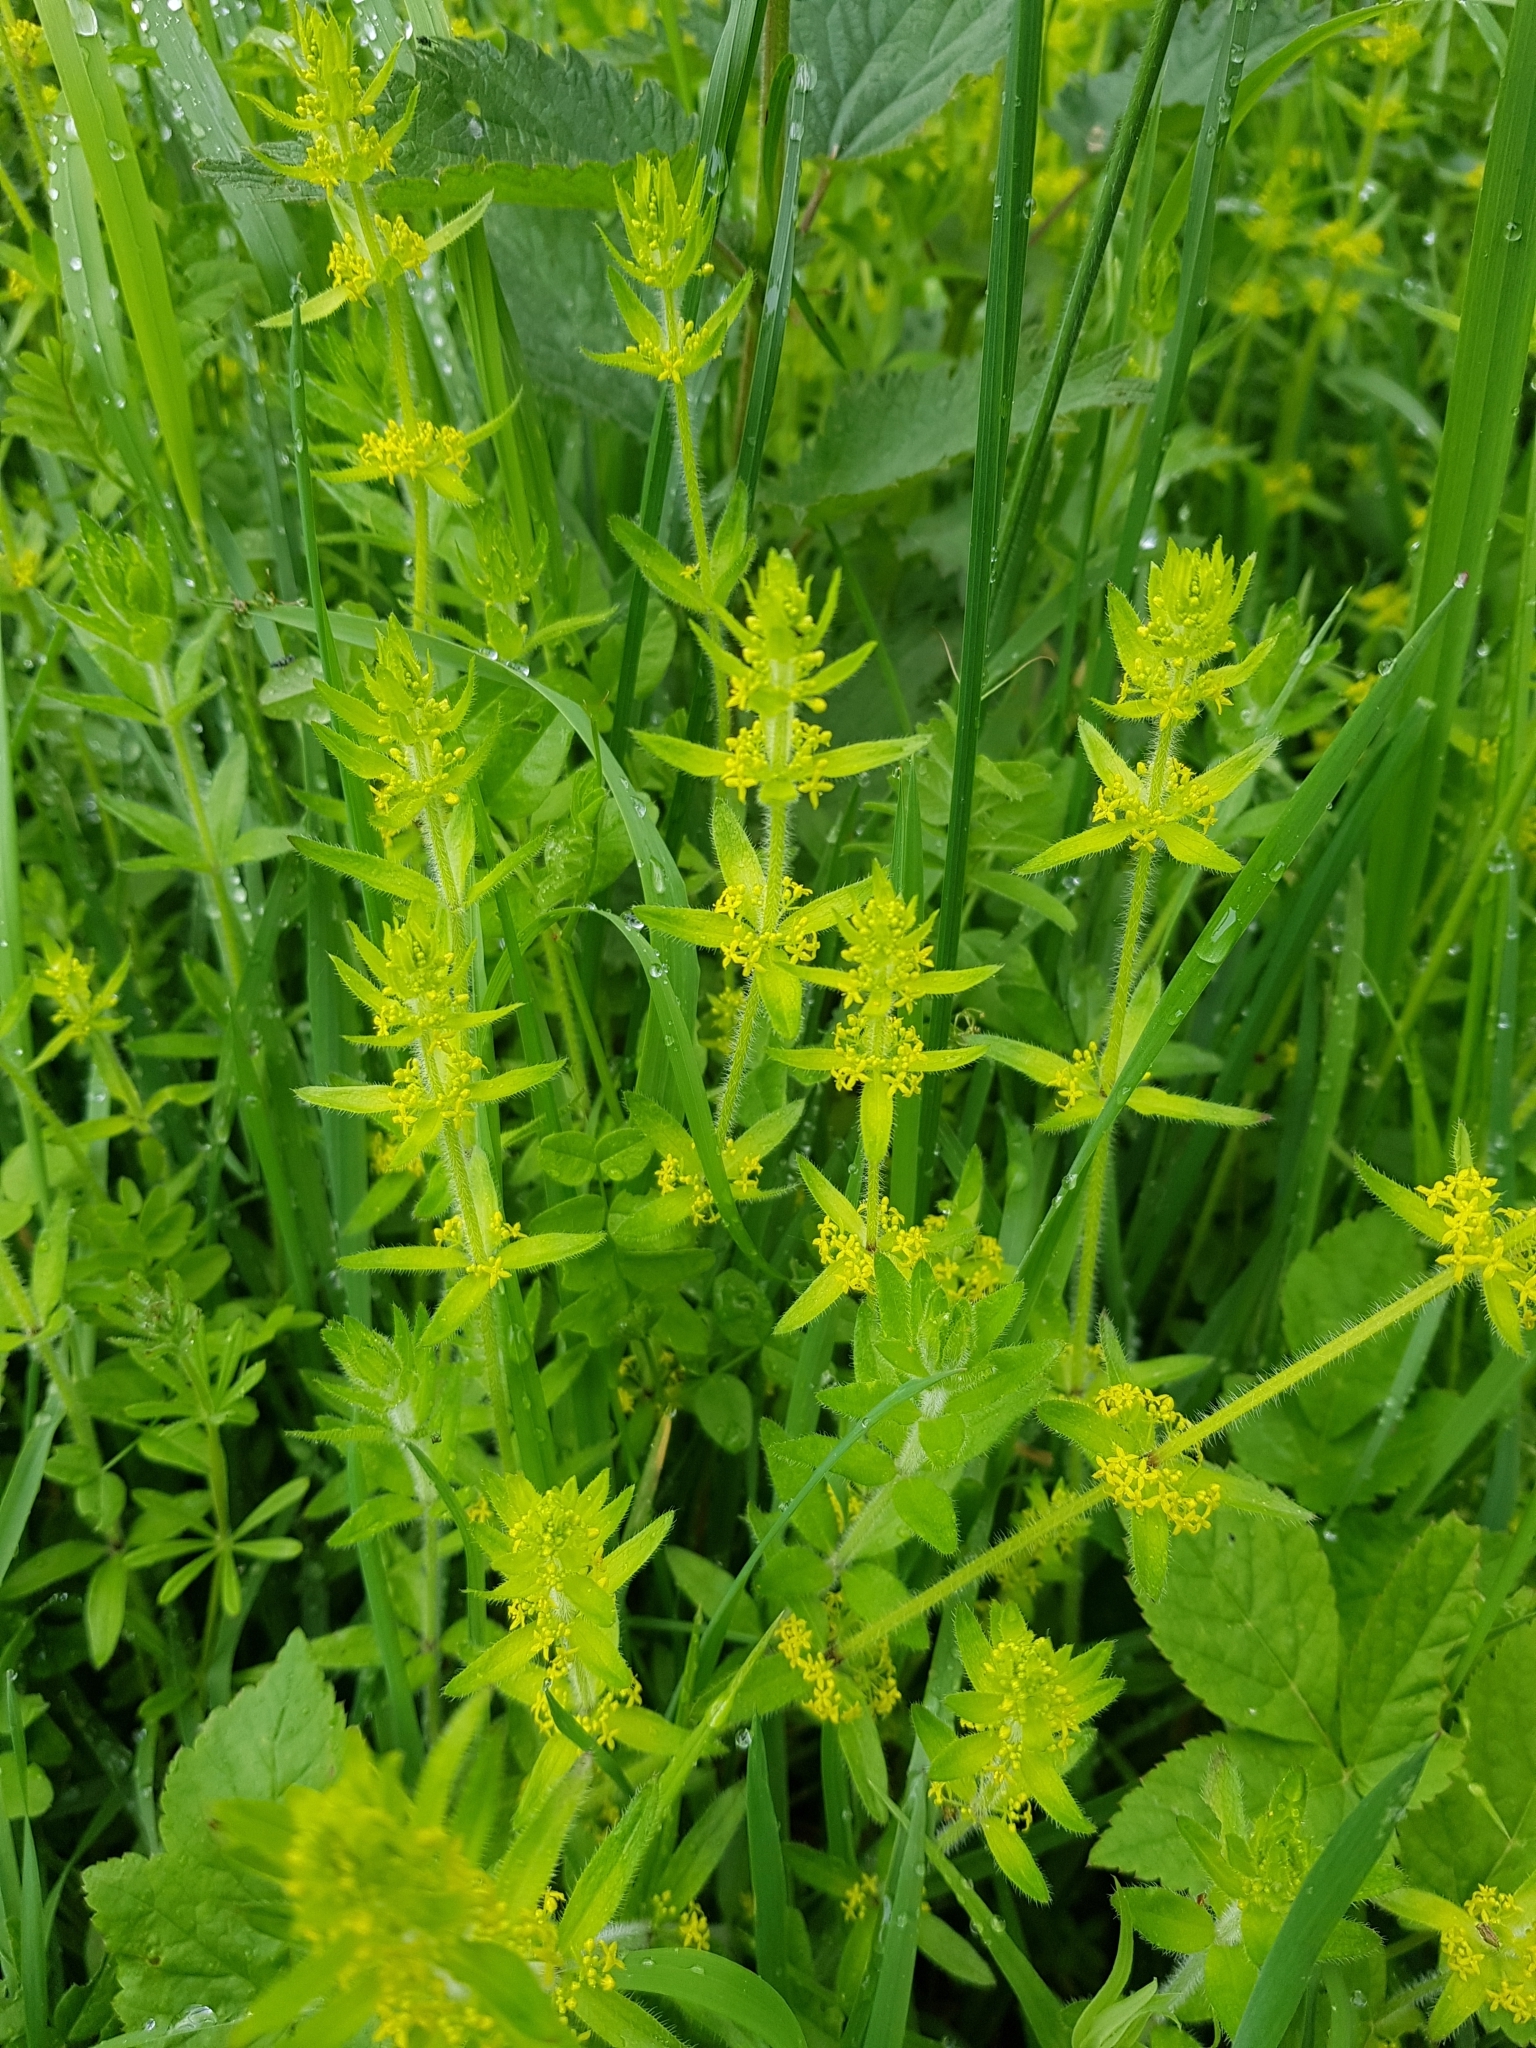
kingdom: Plantae
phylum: Tracheophyta
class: Magnoliopsida
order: Gentianales
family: Rubiaceae
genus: Cruciata
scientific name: Cruciata laevipes
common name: Crosswort
